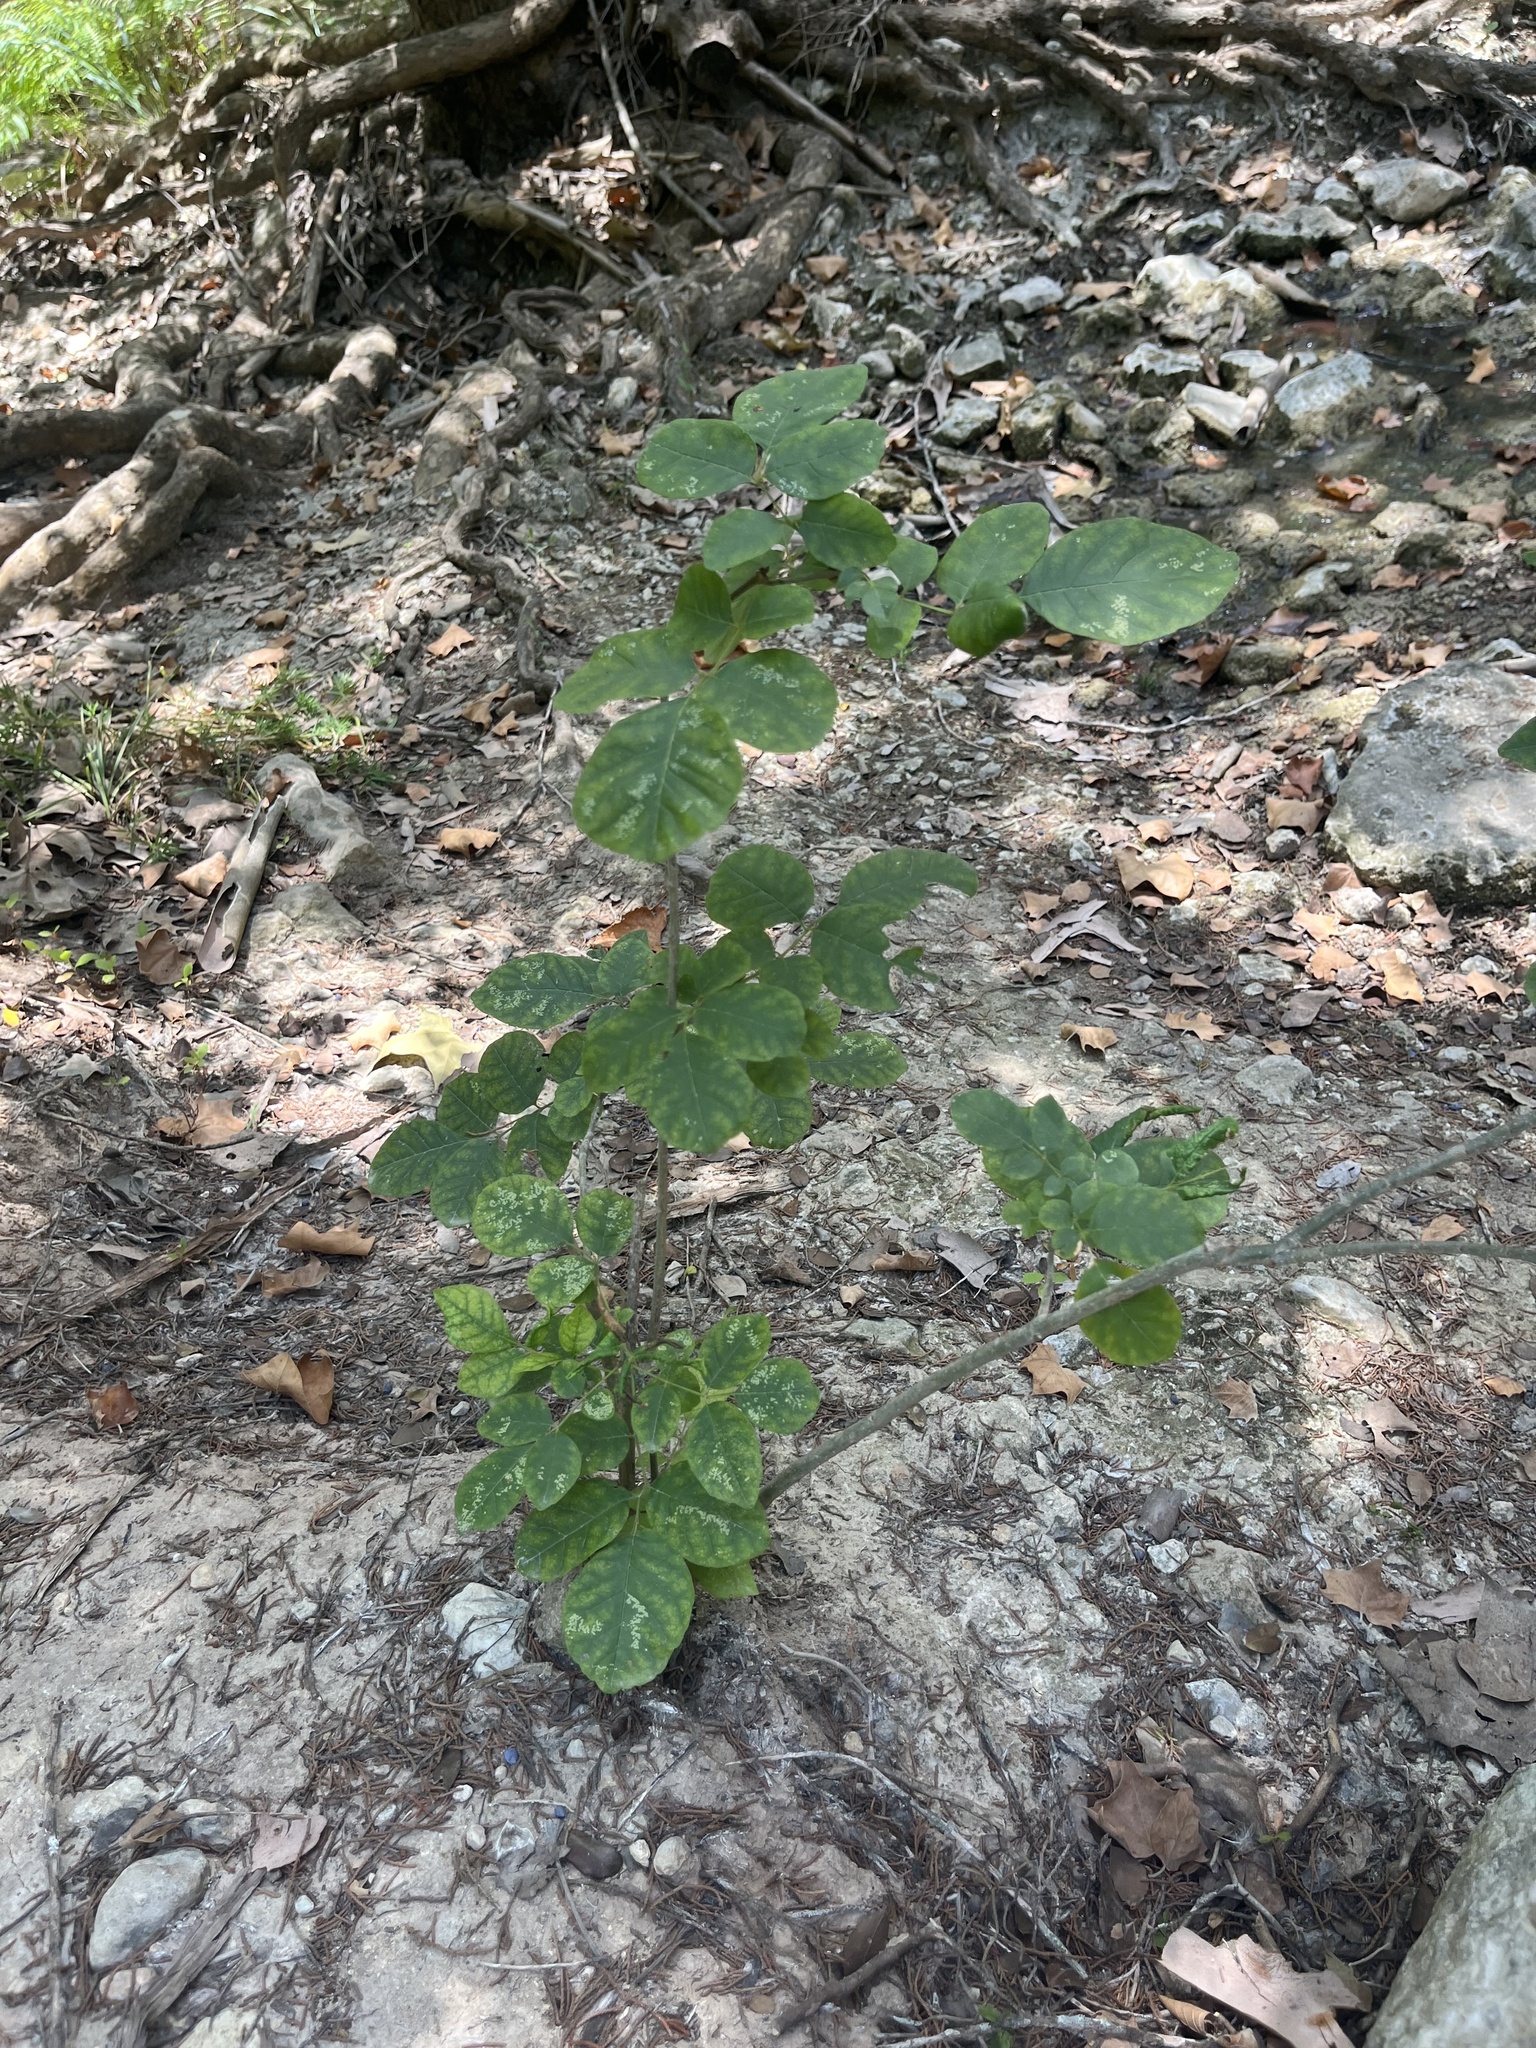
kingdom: Plantae
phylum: Tracheophyta
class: Magnoliopsida
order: Lamiales
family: Oleaceae
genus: Fraxinus
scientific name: Fraxinus albicans
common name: Texas ash
